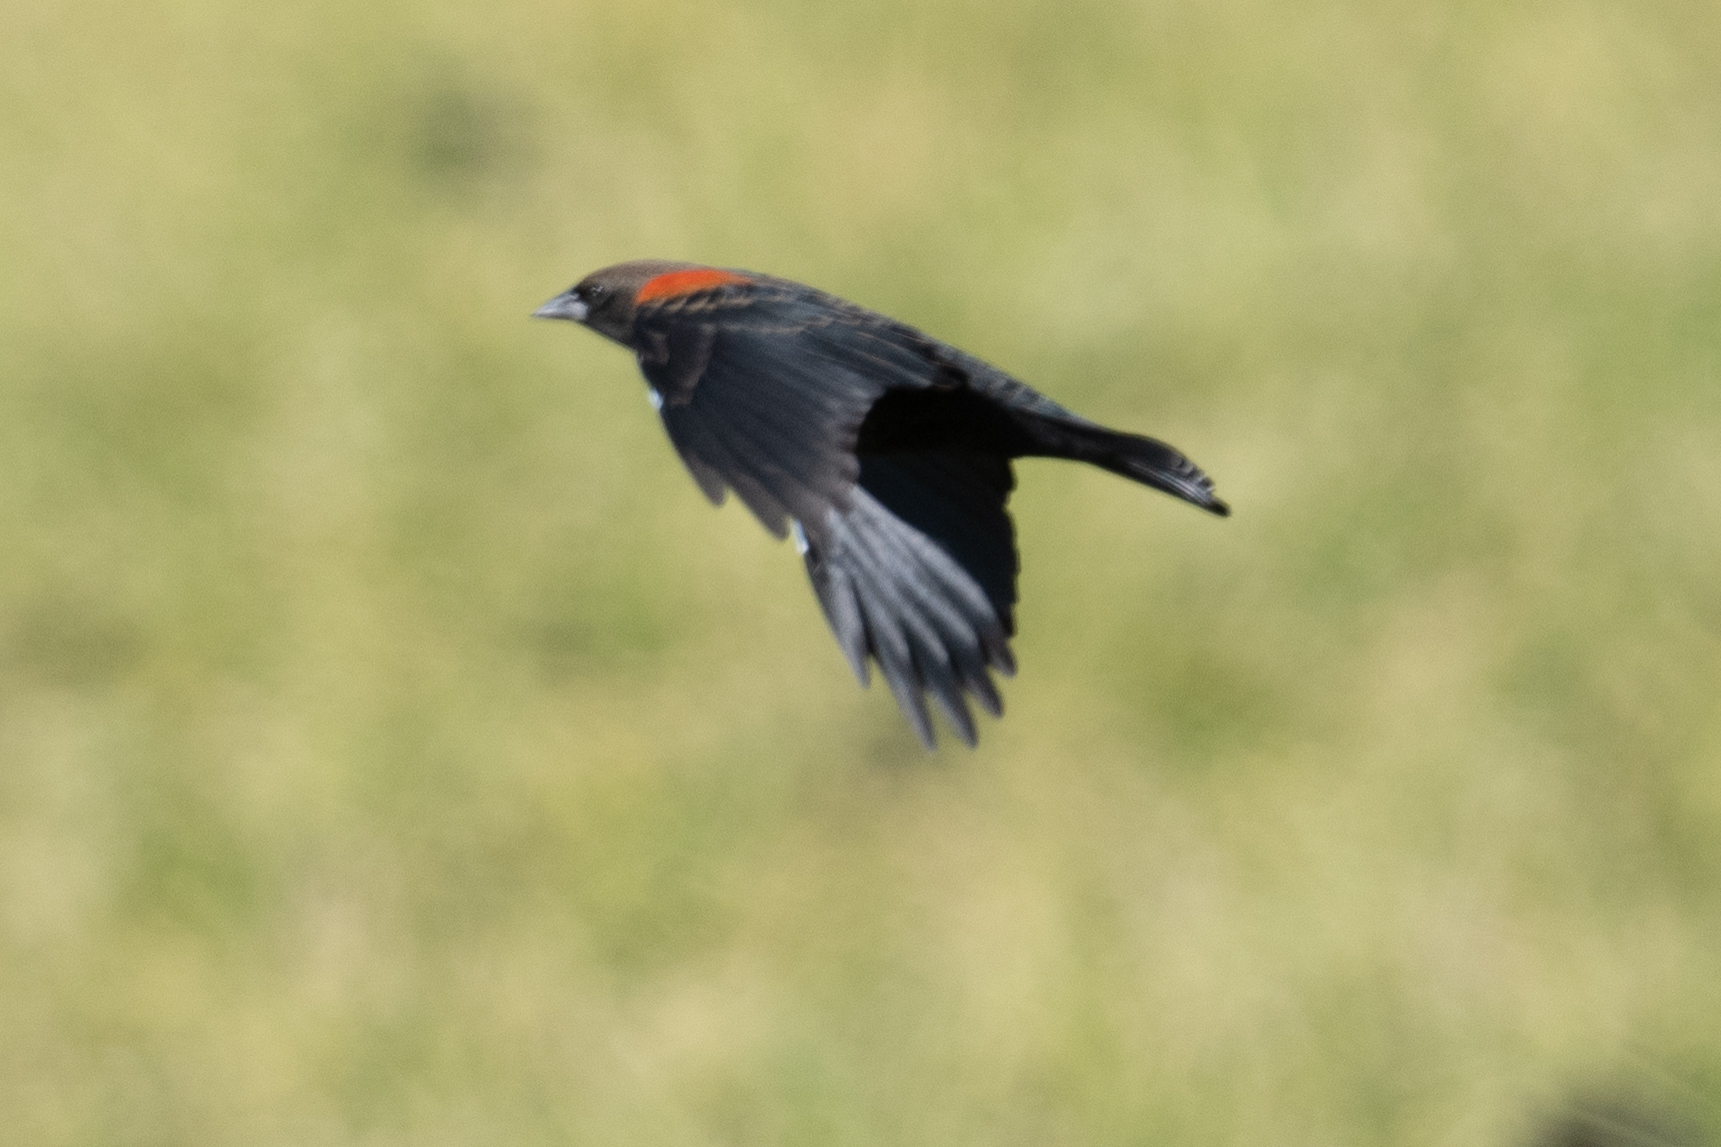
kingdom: Animalia
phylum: Chordata
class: Aves
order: Passeriformes
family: Icteridae
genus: Agelaius
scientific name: Agelaius phoeniceus
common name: Red-winged blackbird
